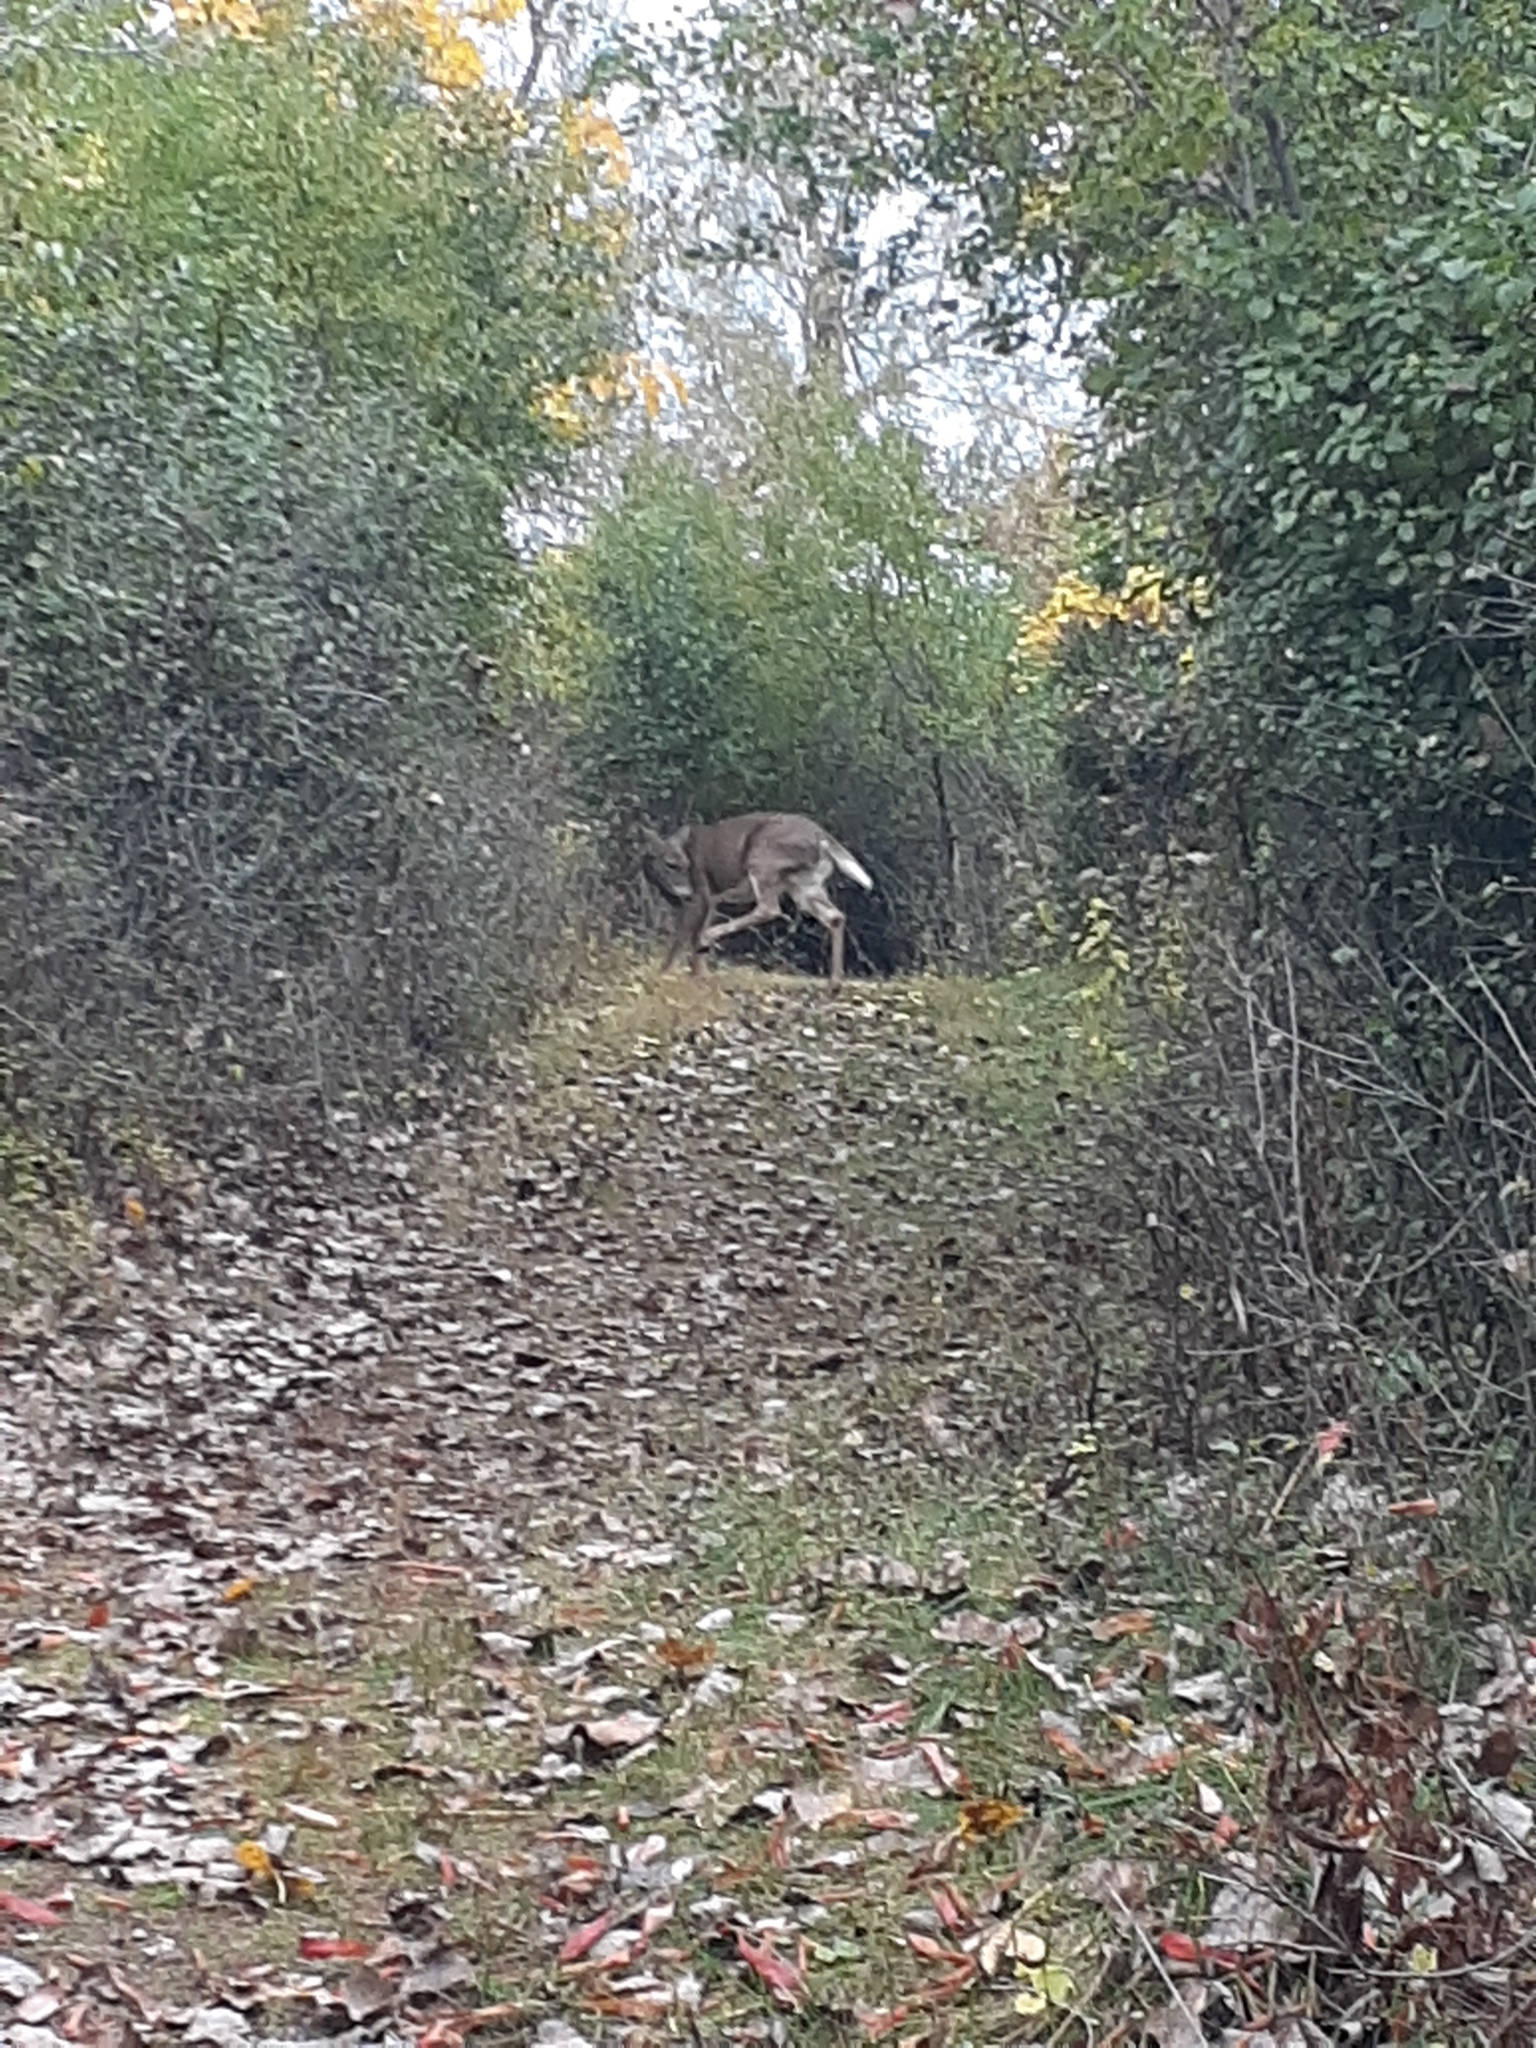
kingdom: Animalia
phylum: Chordata
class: Mammalia
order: Artiodactyla
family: Cervidae
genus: Odocoileus
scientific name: Odocoileus virginianus
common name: White-tailed deer
